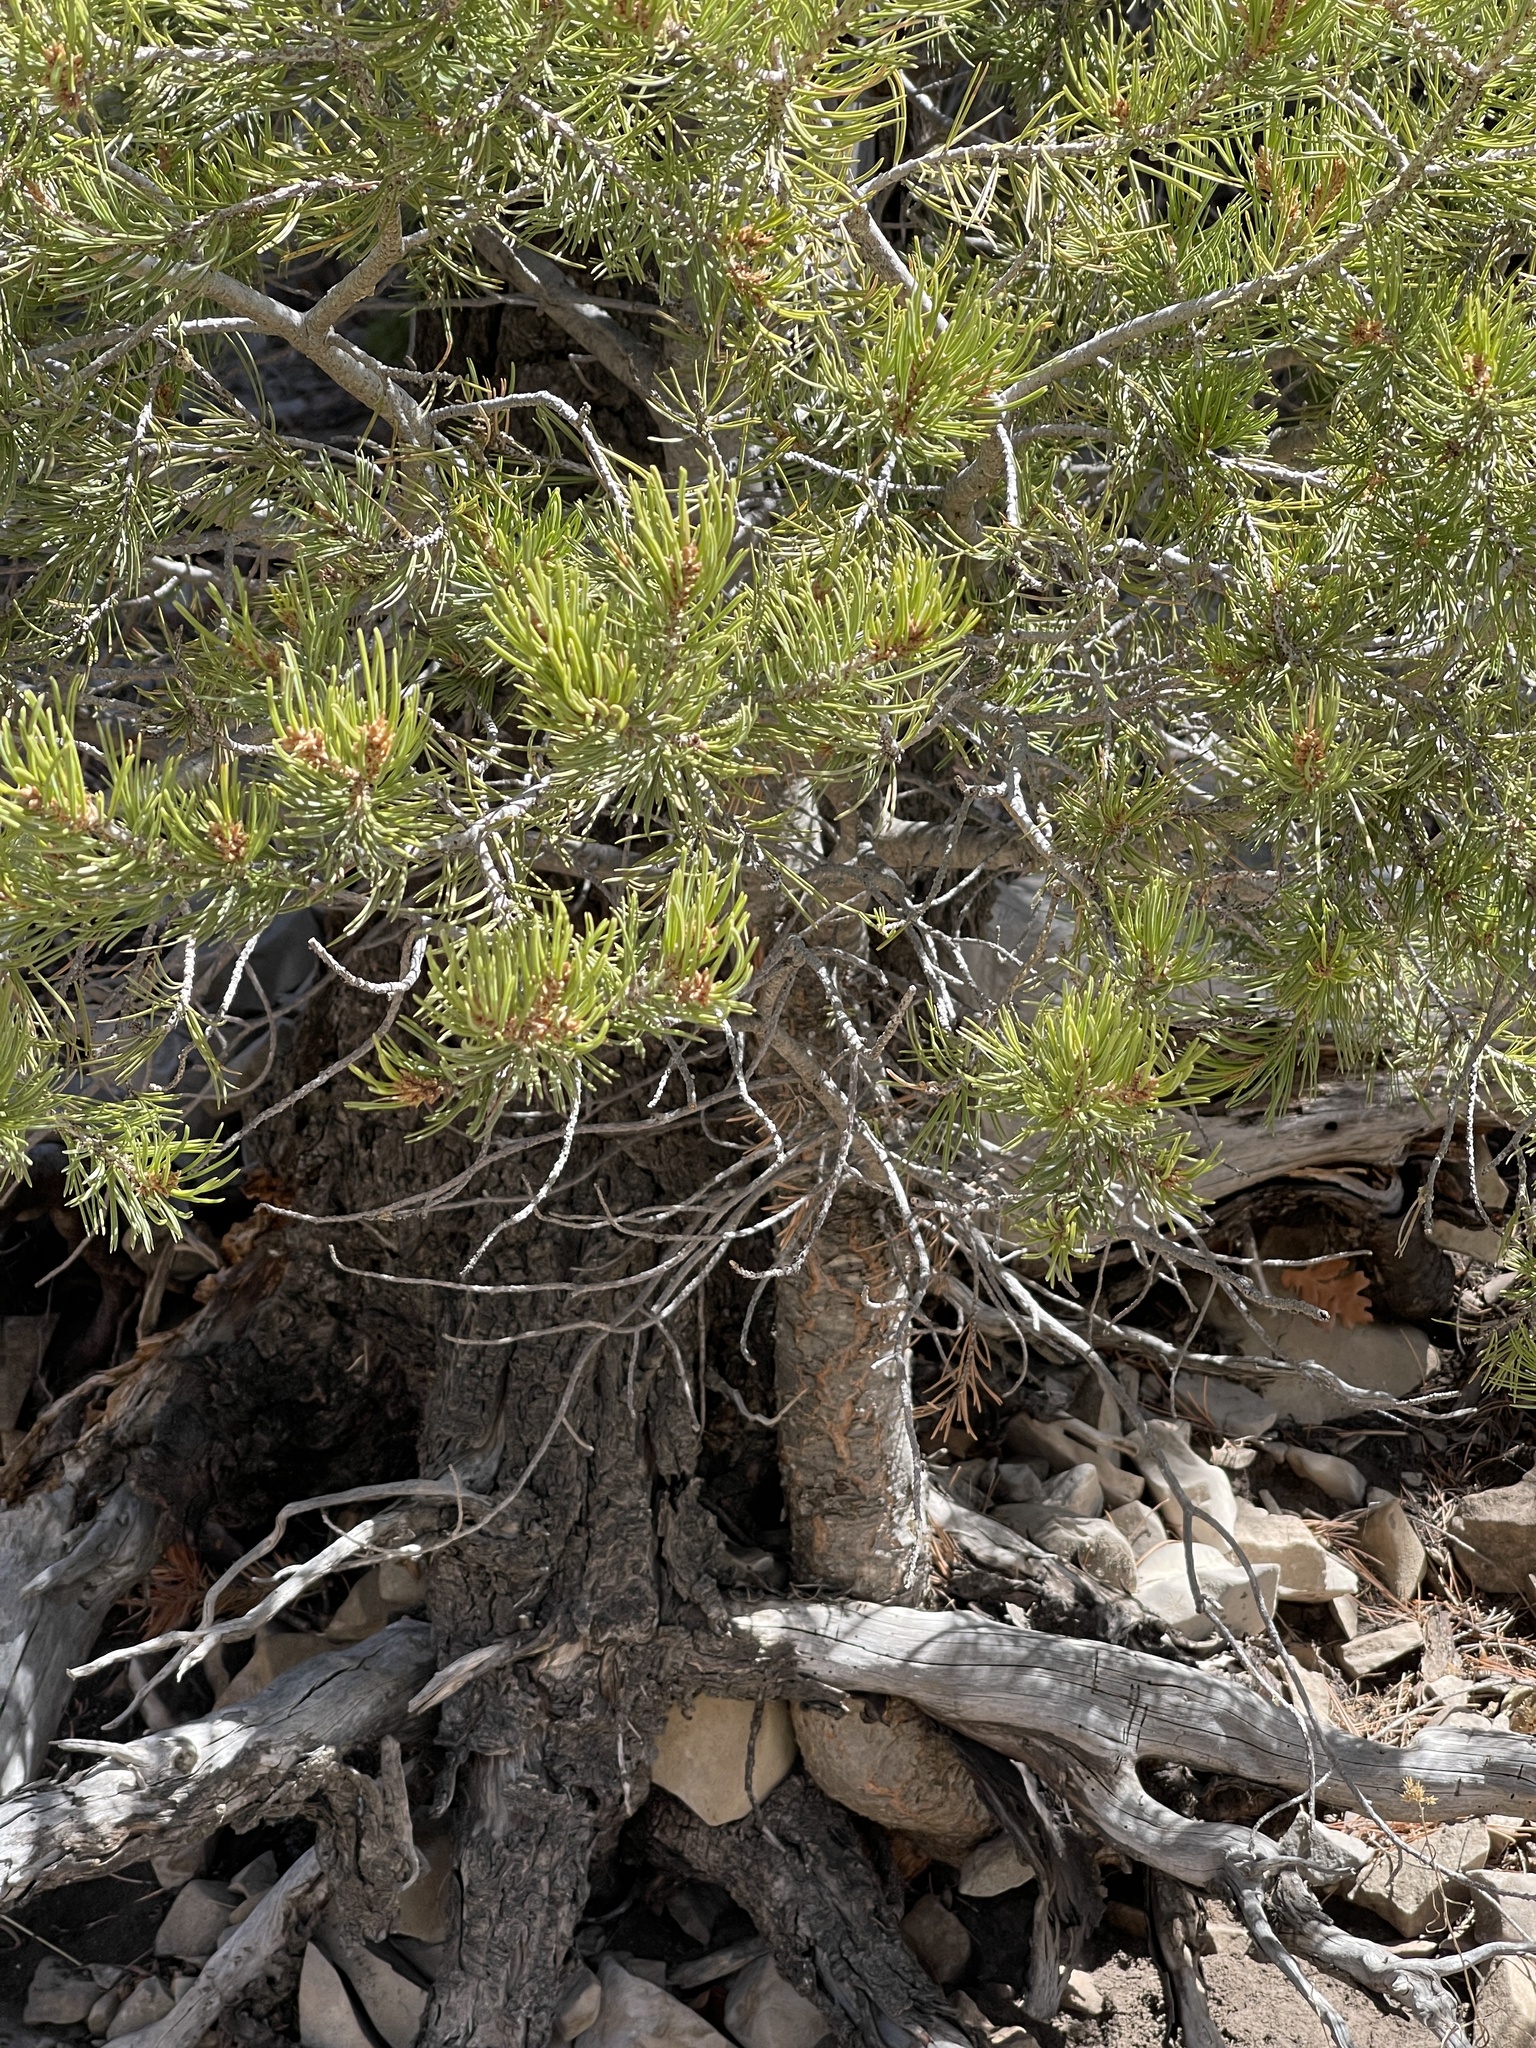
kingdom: Plantae
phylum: Tracheophyta
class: Pinopsida
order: Pinales
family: Pinaceae
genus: Pinus
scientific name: Pinus edulis
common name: Colorado pinyon
